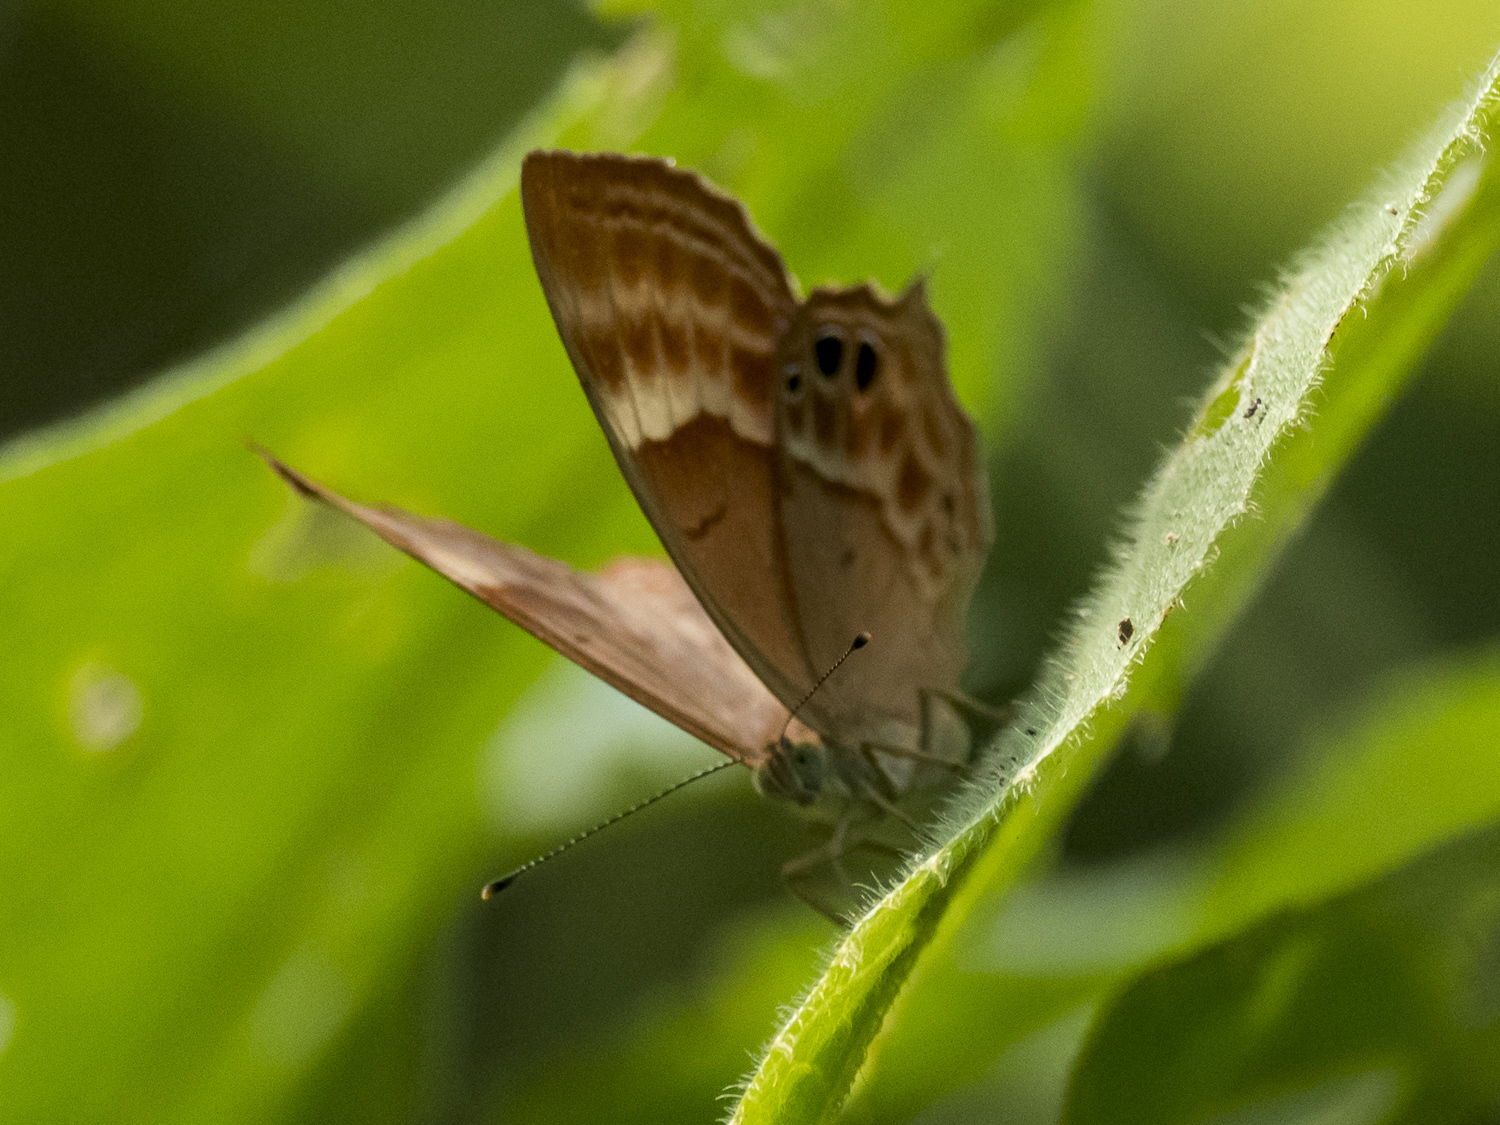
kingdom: Animalia
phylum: Arthropoda
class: Insecta
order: Lepidoptera
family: Lycaenidae
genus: Abisara
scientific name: Abisara echeria
